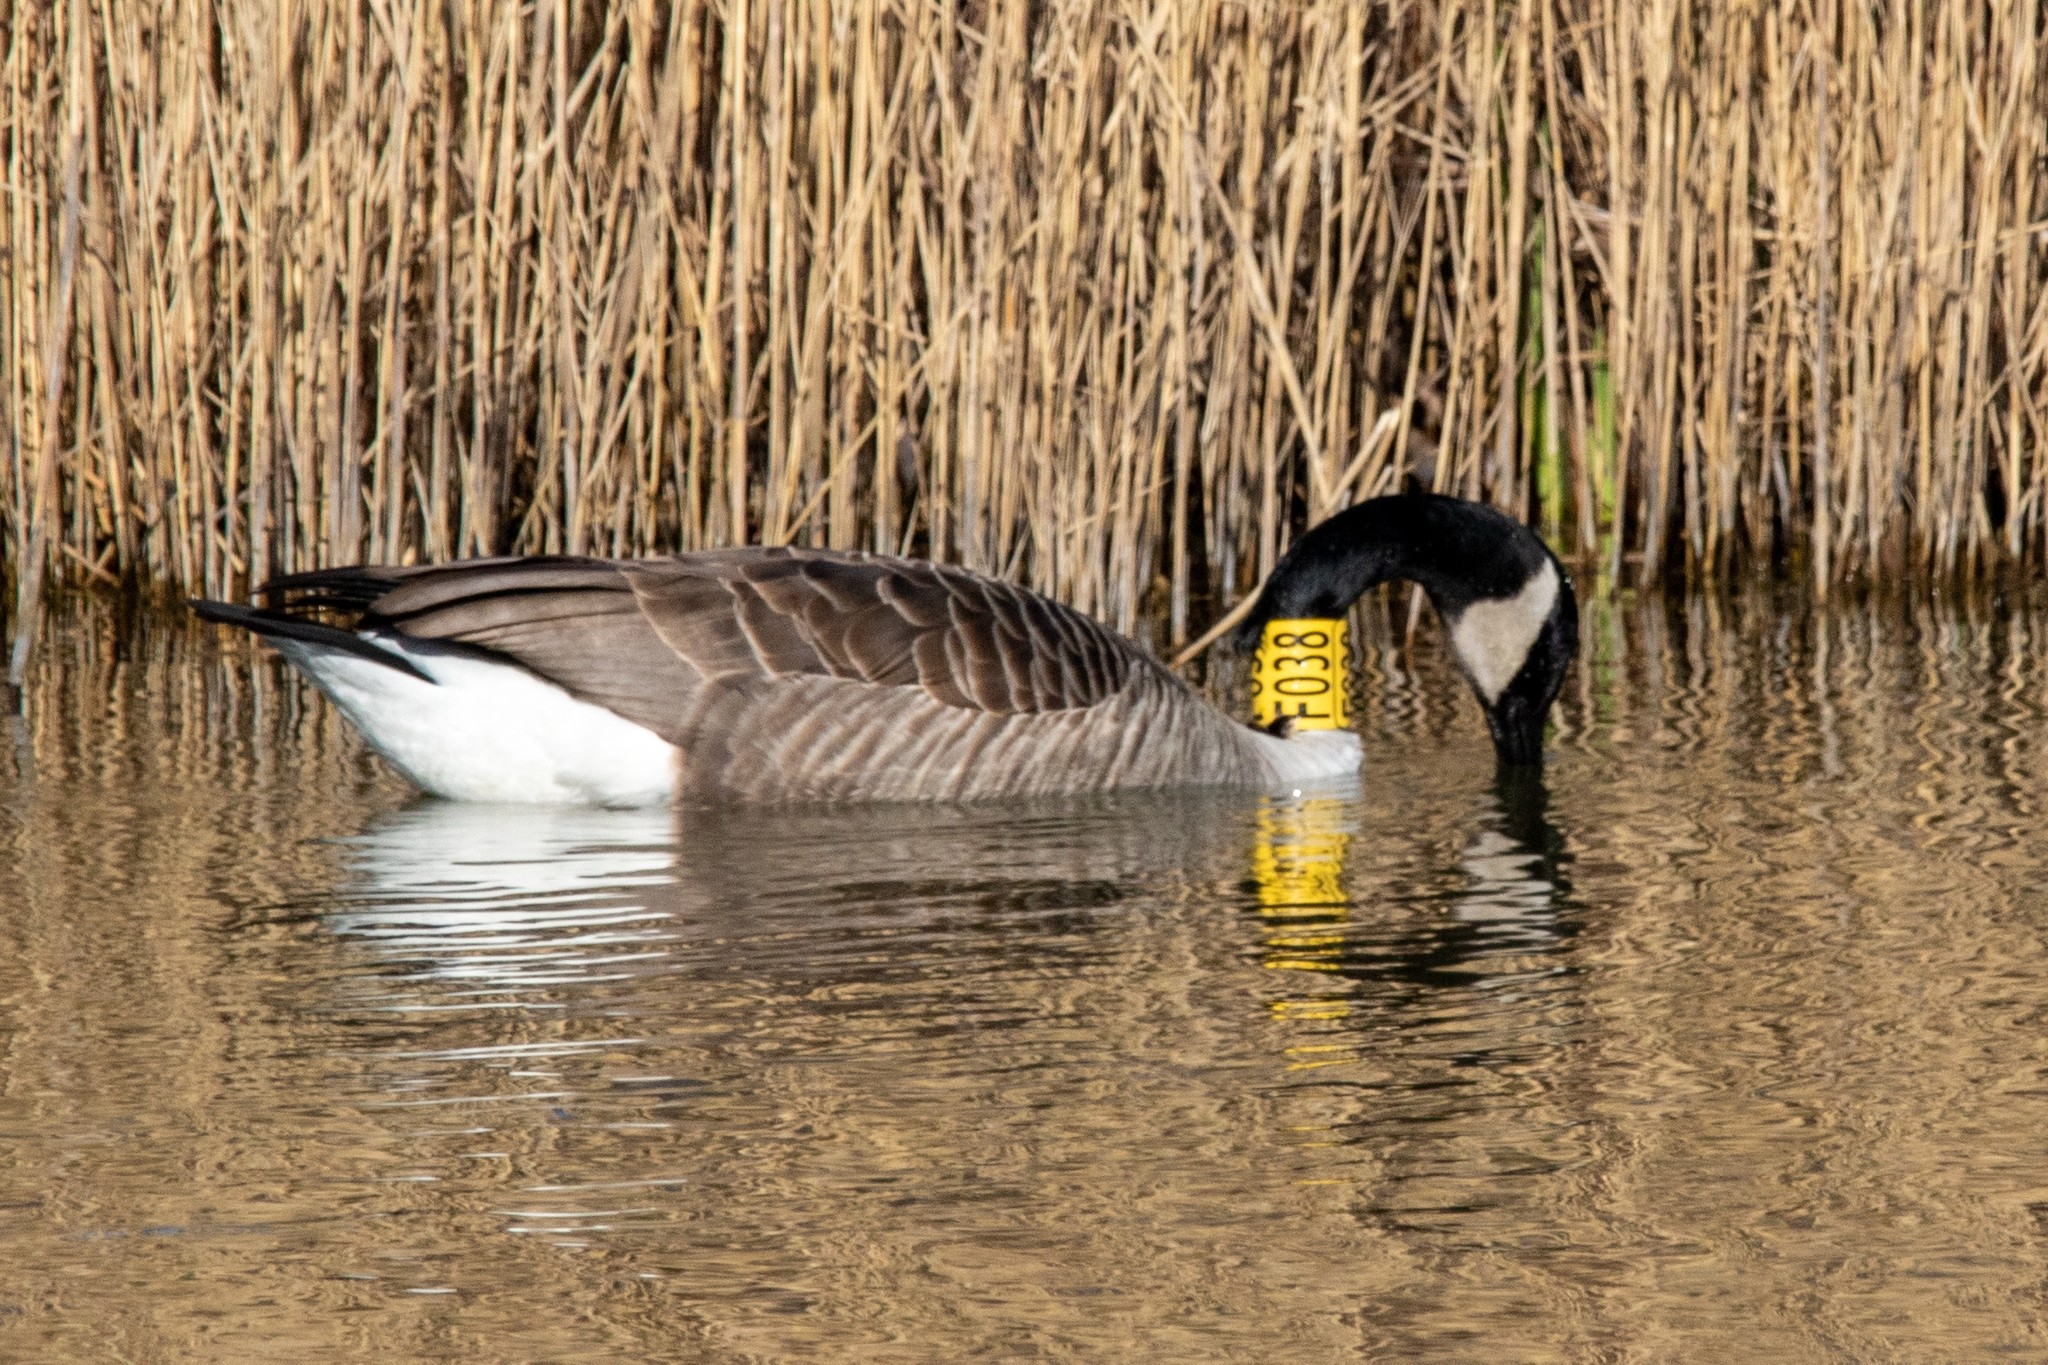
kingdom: Animalia
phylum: Chordata
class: Aves
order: Anseriformes
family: Anatidae
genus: Branta
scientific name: Branta canadensis
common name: Canada goose
